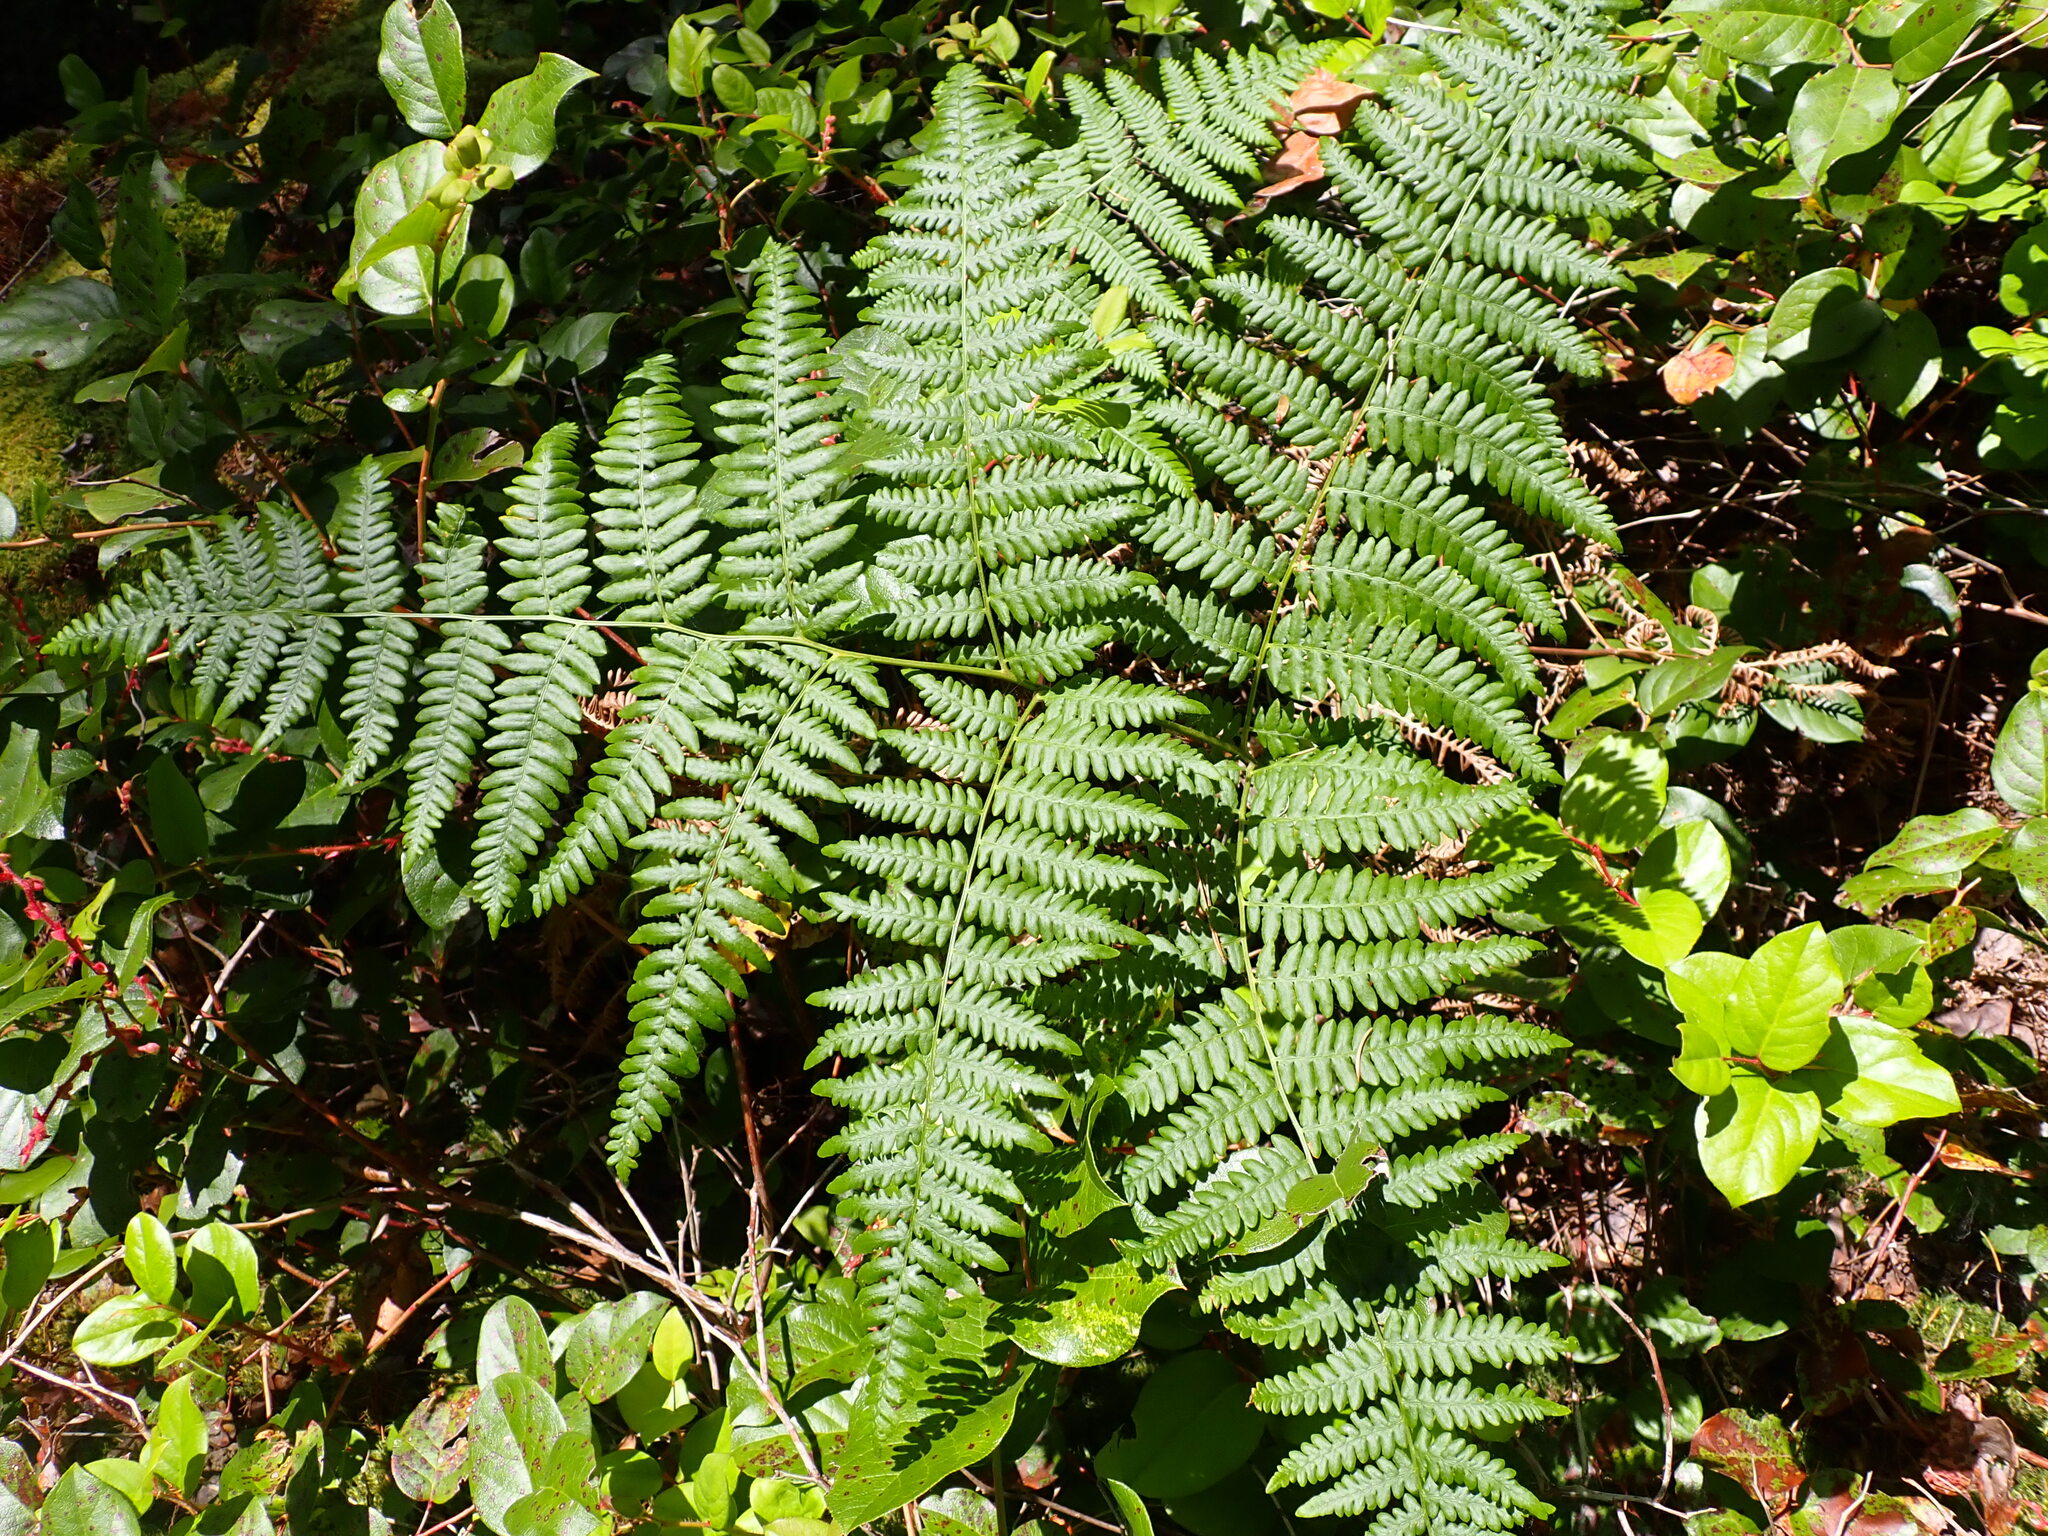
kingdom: Plantae
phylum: Tracheophyta
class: Polypodiopsida
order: Polypodiales
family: Dennstaedtiaceae
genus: Pteridium
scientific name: Pteridium aquilinum
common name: Bracken
